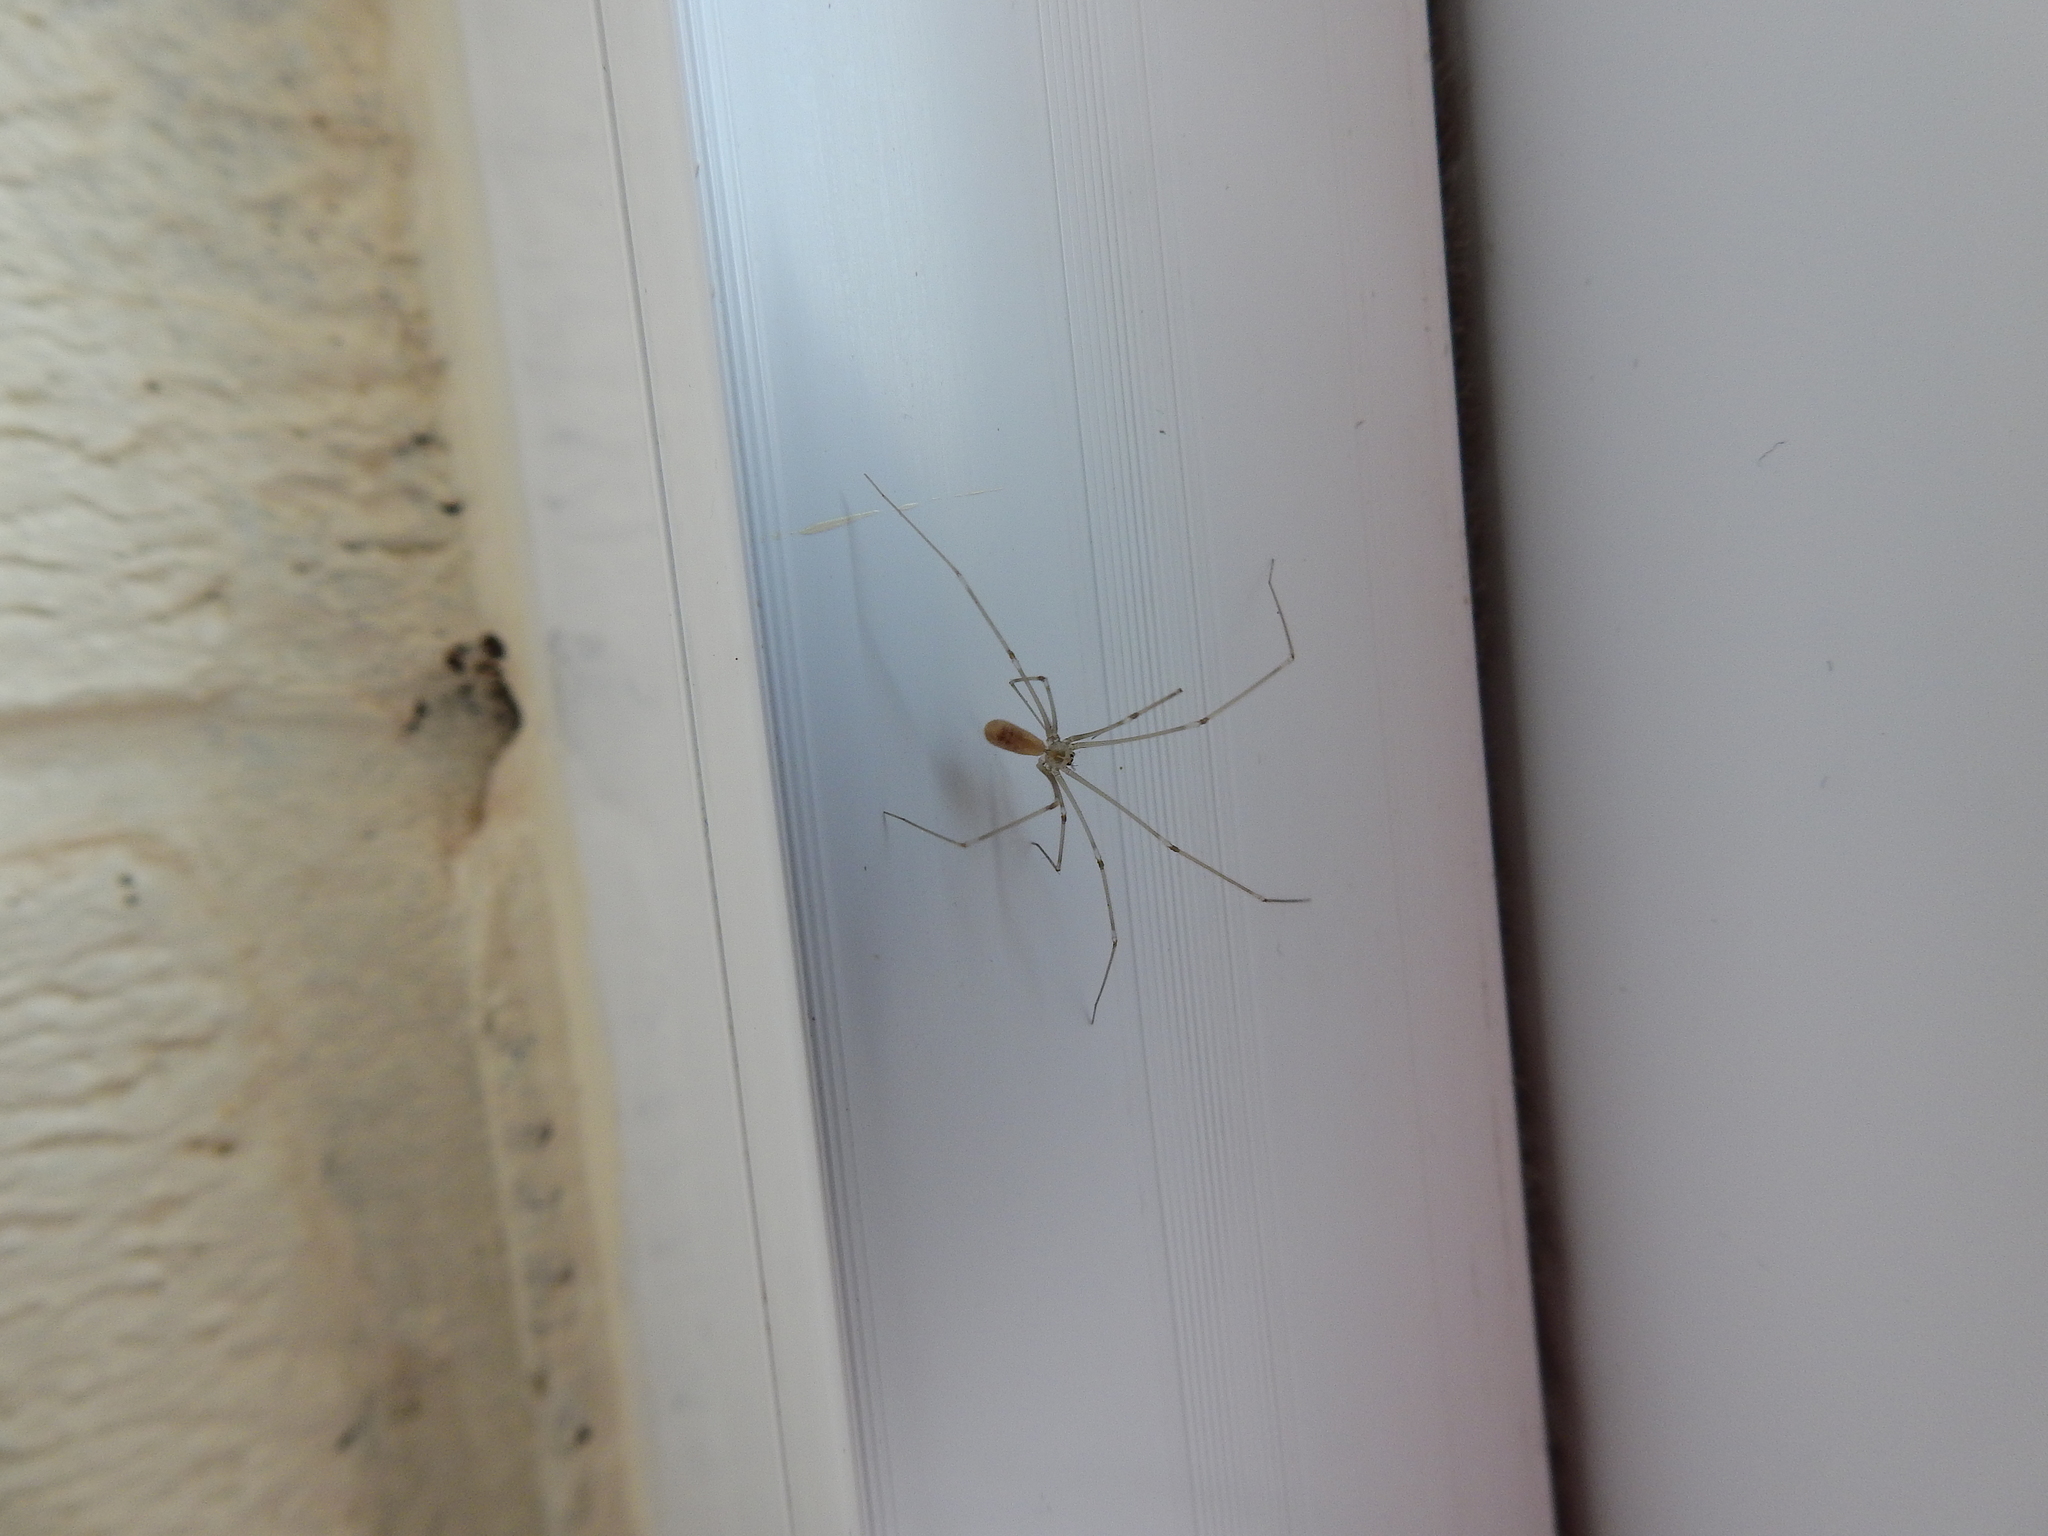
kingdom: Animalia
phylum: Arthropoda
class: Arachnida
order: Araneae
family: Pholcidae
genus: Pholcus
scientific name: Pholcus phalangioides
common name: Longbodied cellar spider
